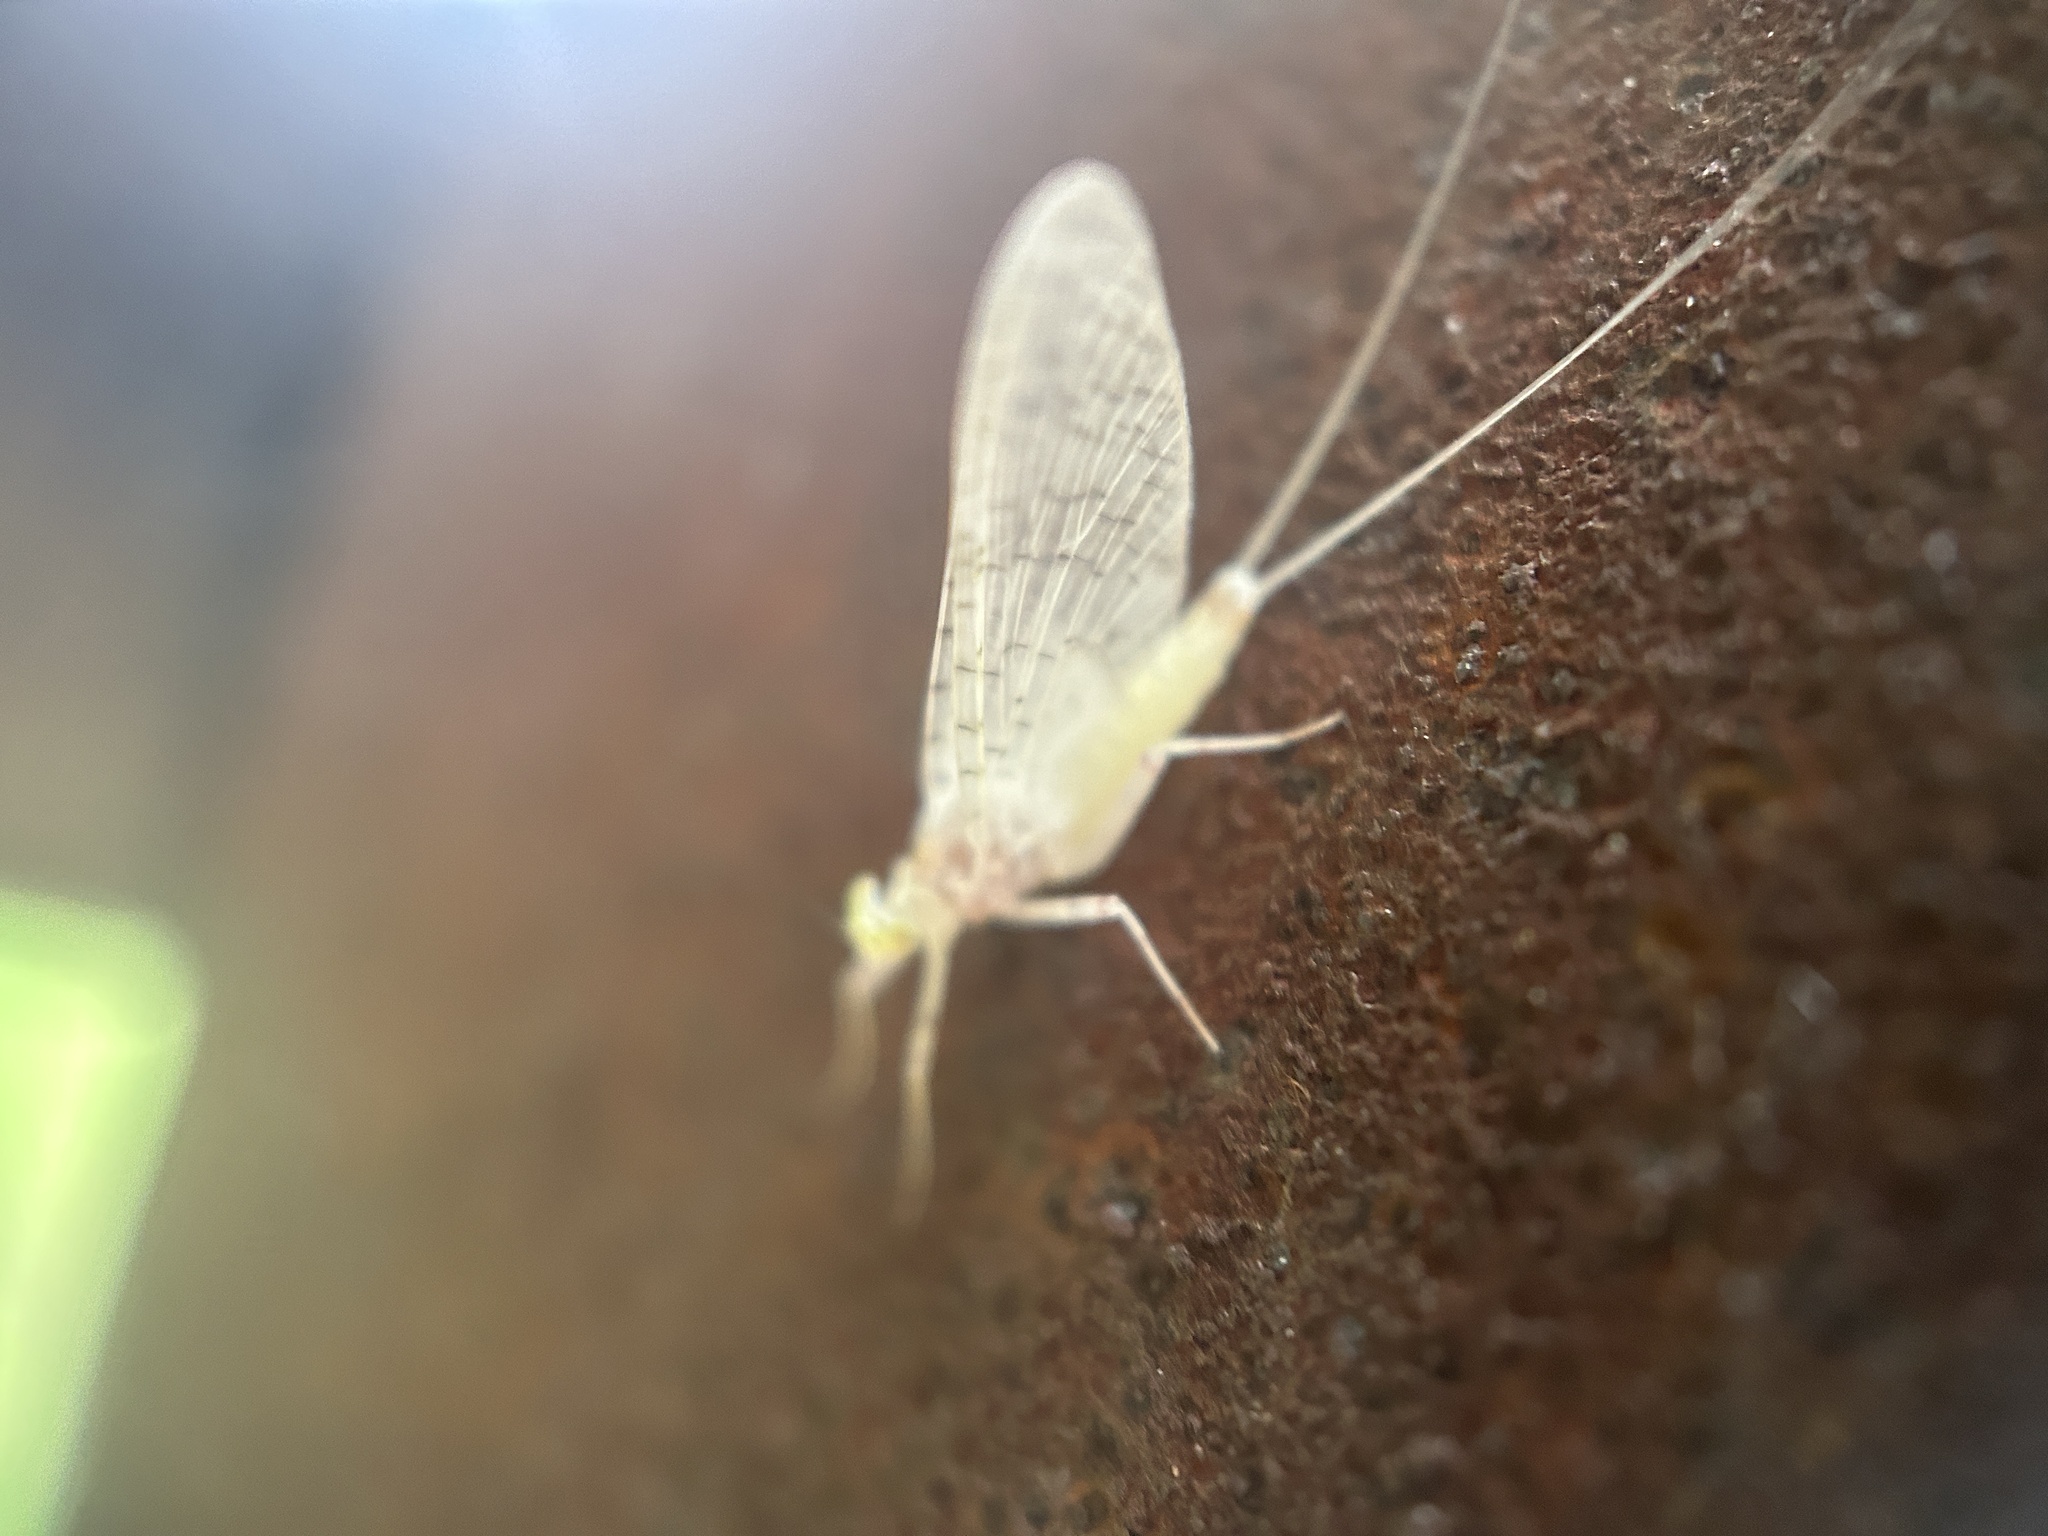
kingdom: Animalia
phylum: Arthropoda
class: Insecta
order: Ephemeroptera
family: Heptageniidae
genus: Maccaffertium
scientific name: Maccaffertium terminatum
